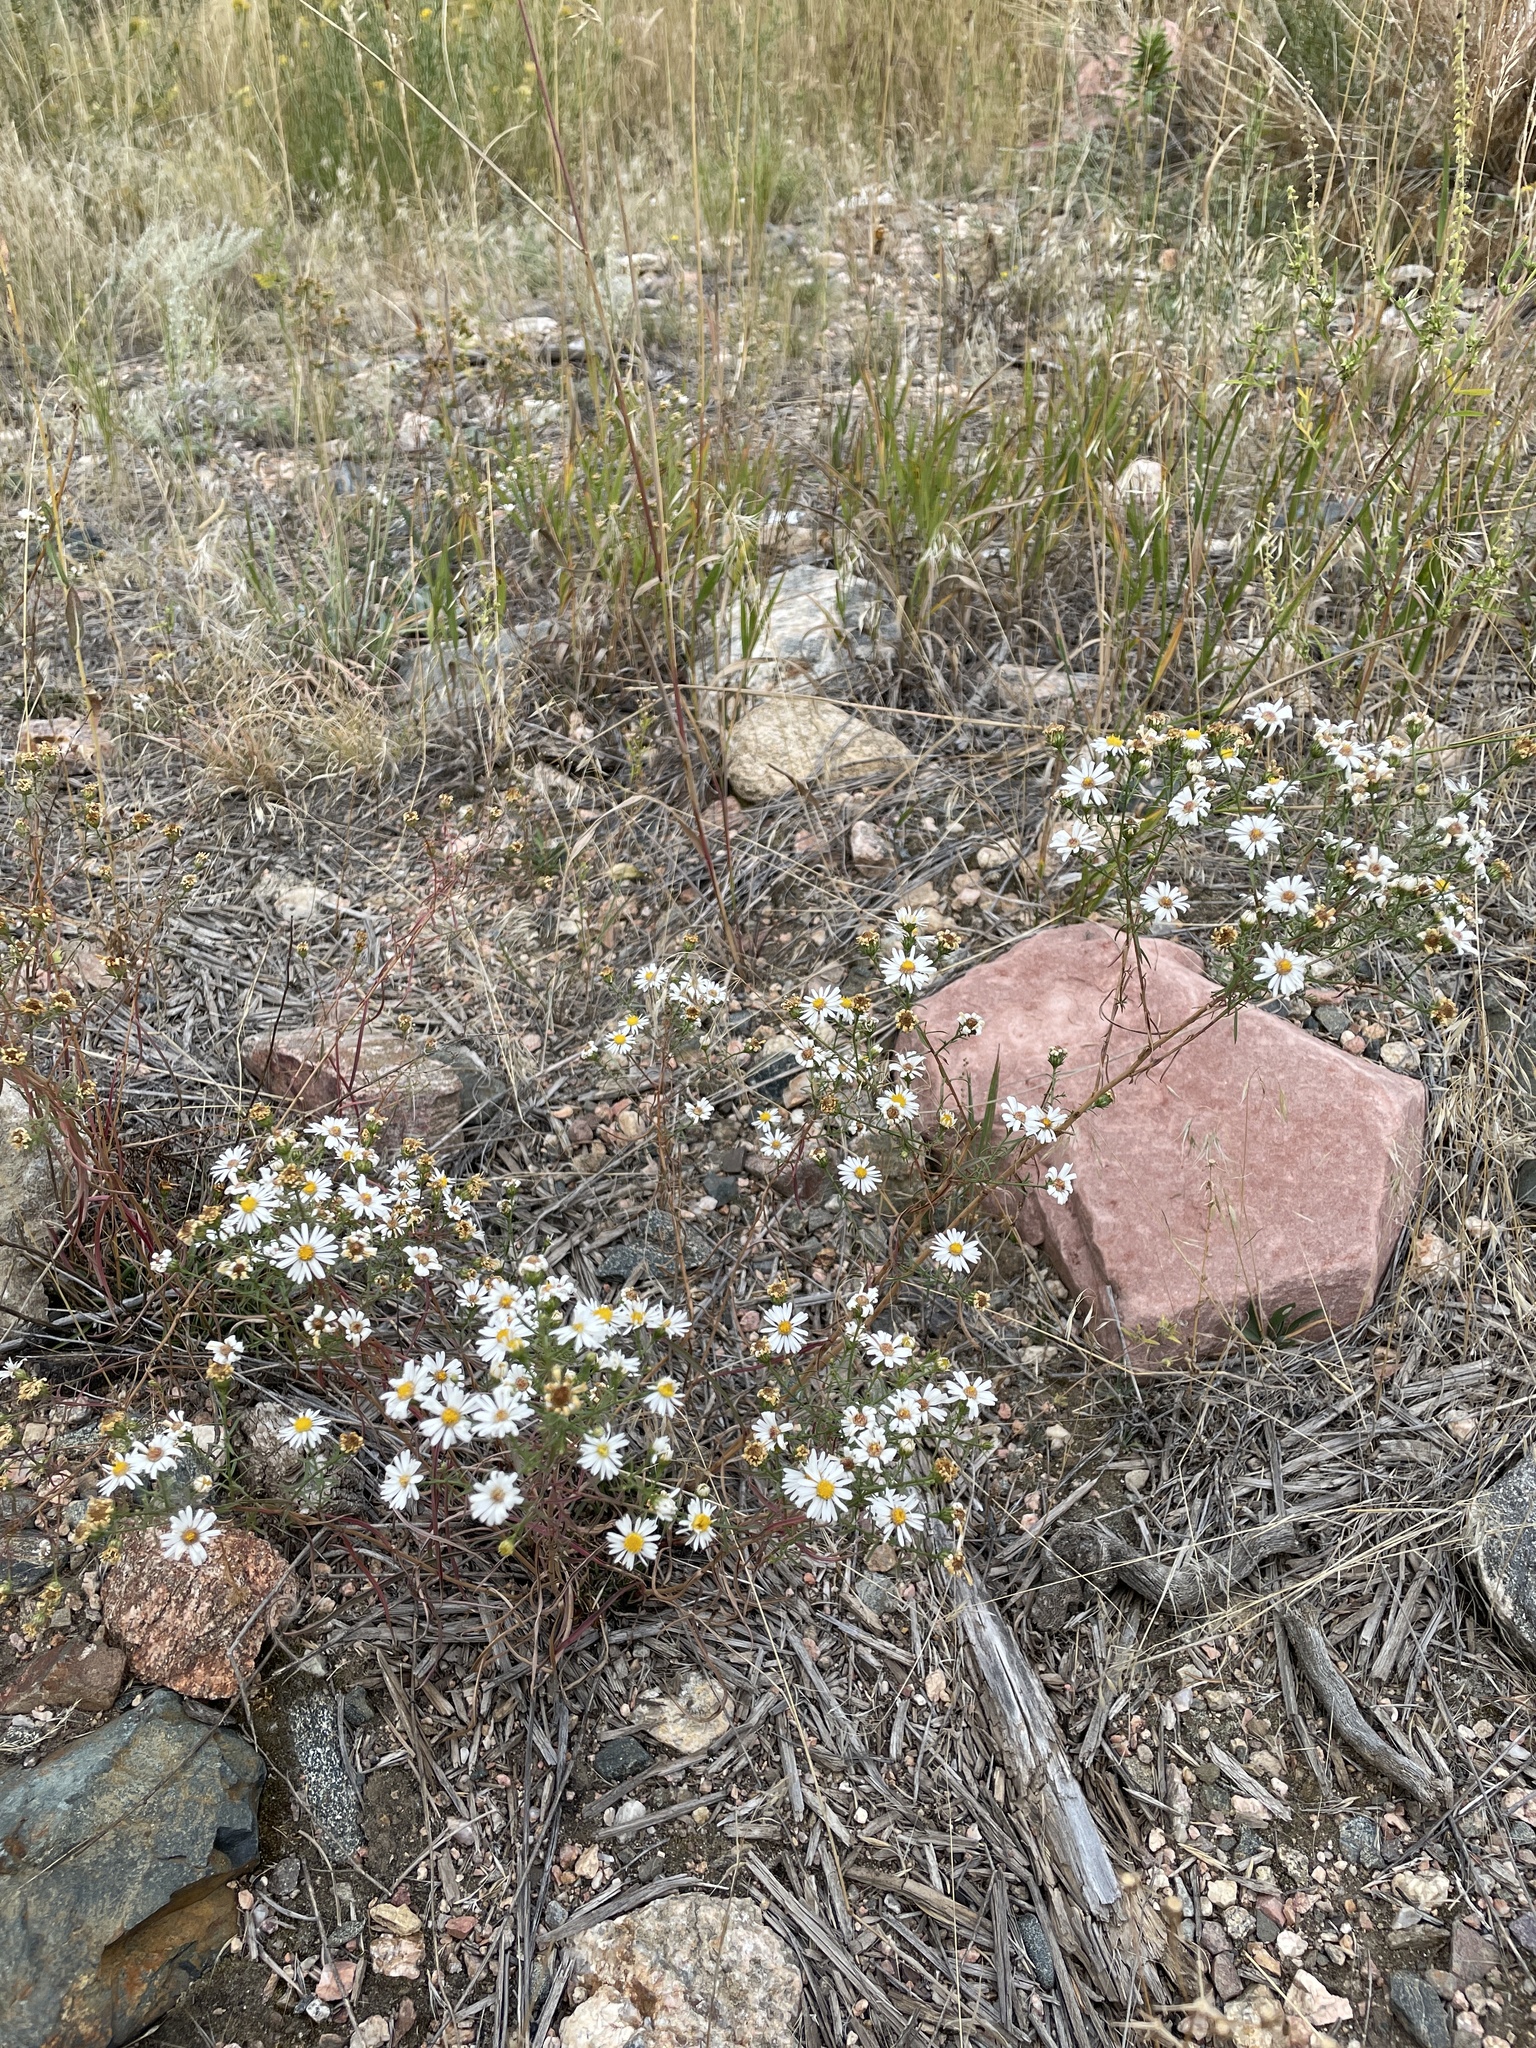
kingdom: Plantae
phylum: Tracheophyta
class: Magnoliopsida
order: Asterales
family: Asteraceae
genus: Symphyotrichum
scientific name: Symphyotrichum porteri
